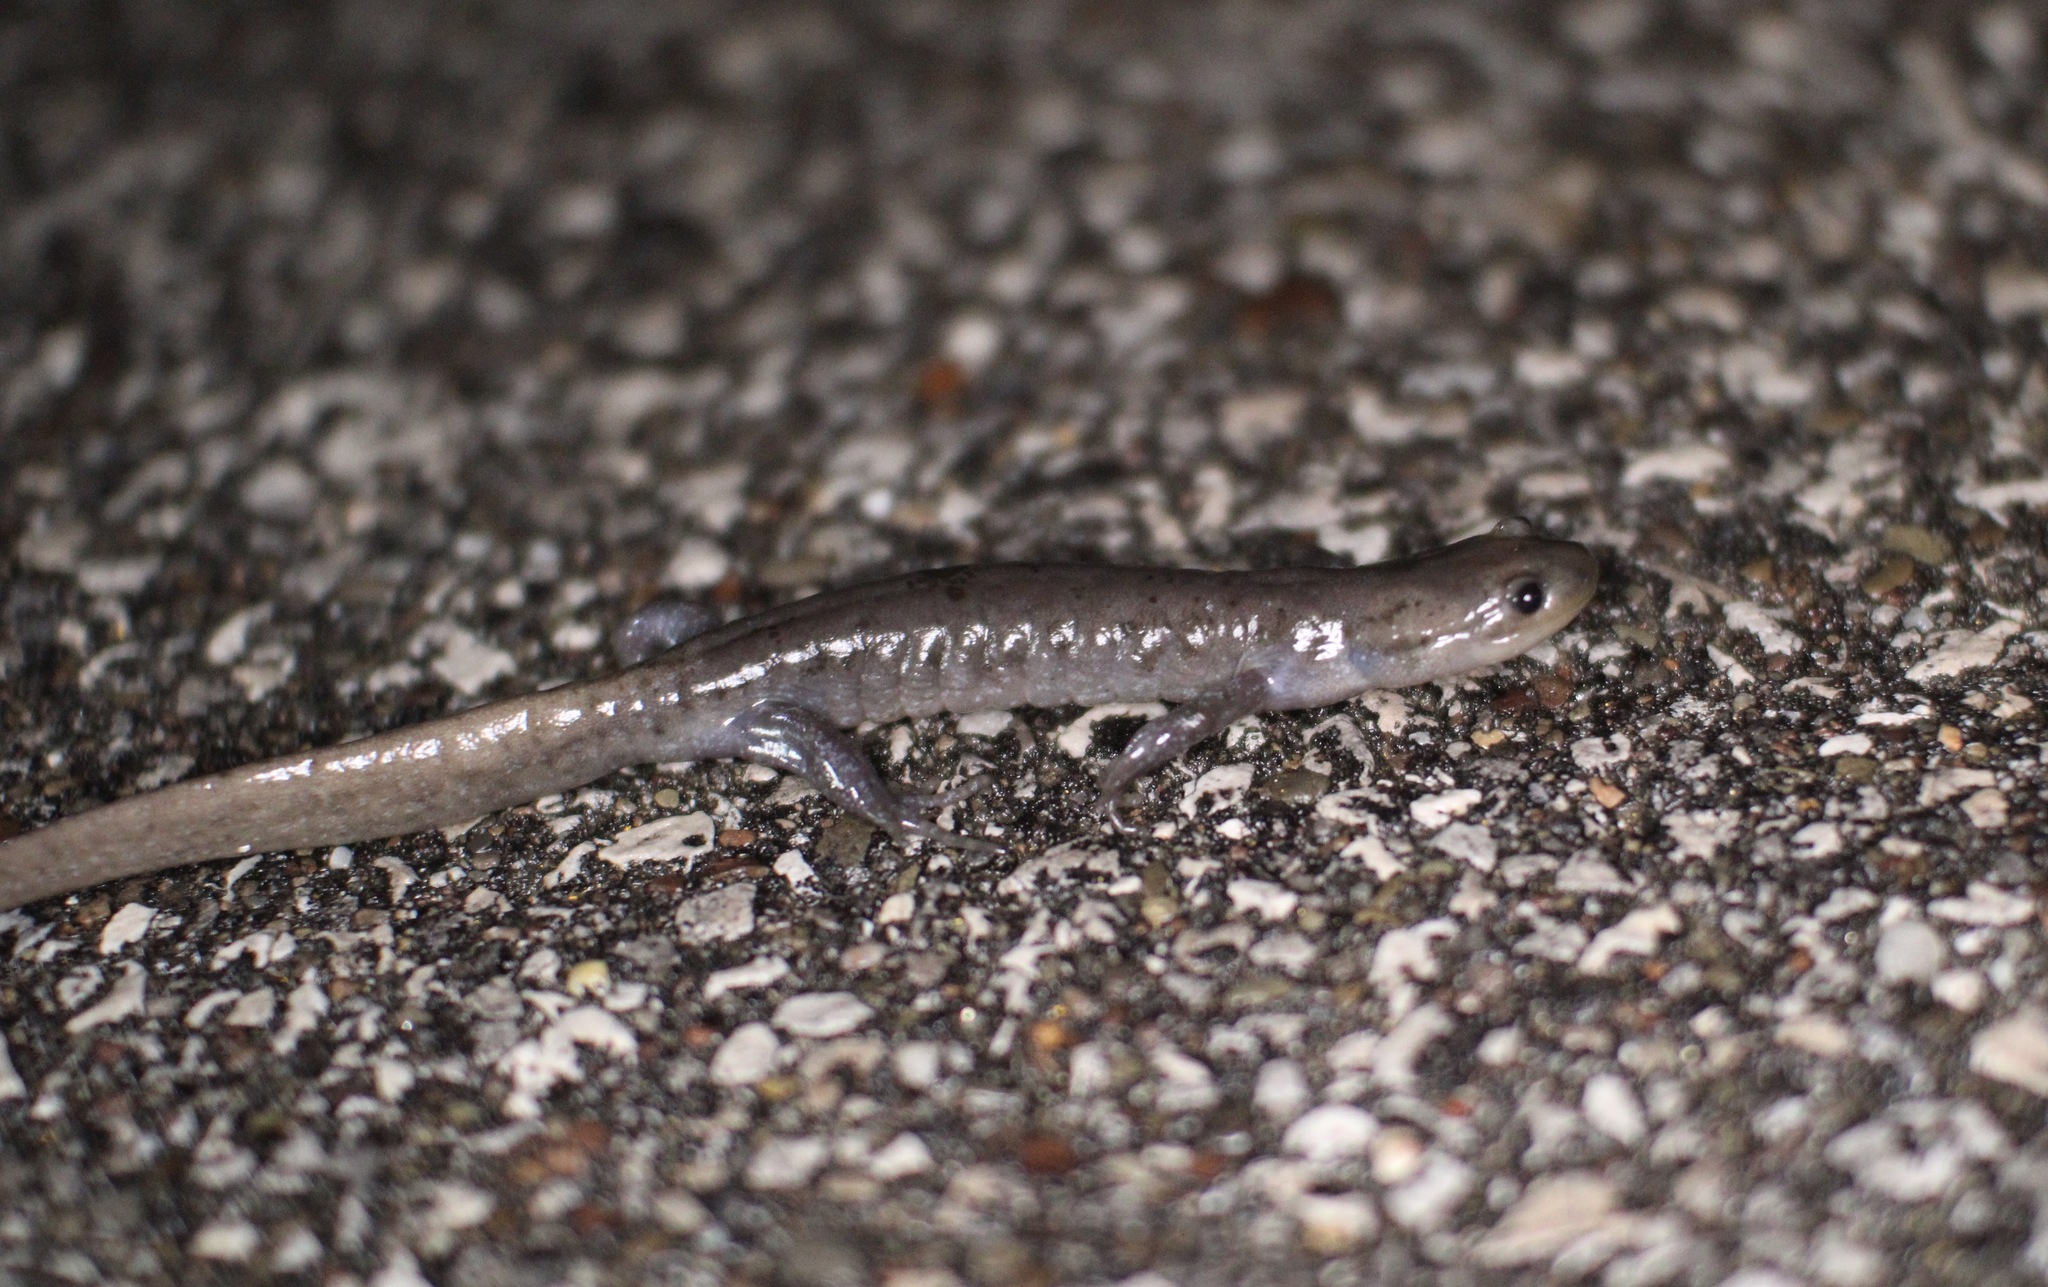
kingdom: Animalia
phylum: Chordata
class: Amphibia
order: Caudata
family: Ambystomatidae
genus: Ambystoma
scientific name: Ambystoma jeffersonianum
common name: Jefferson salamander
